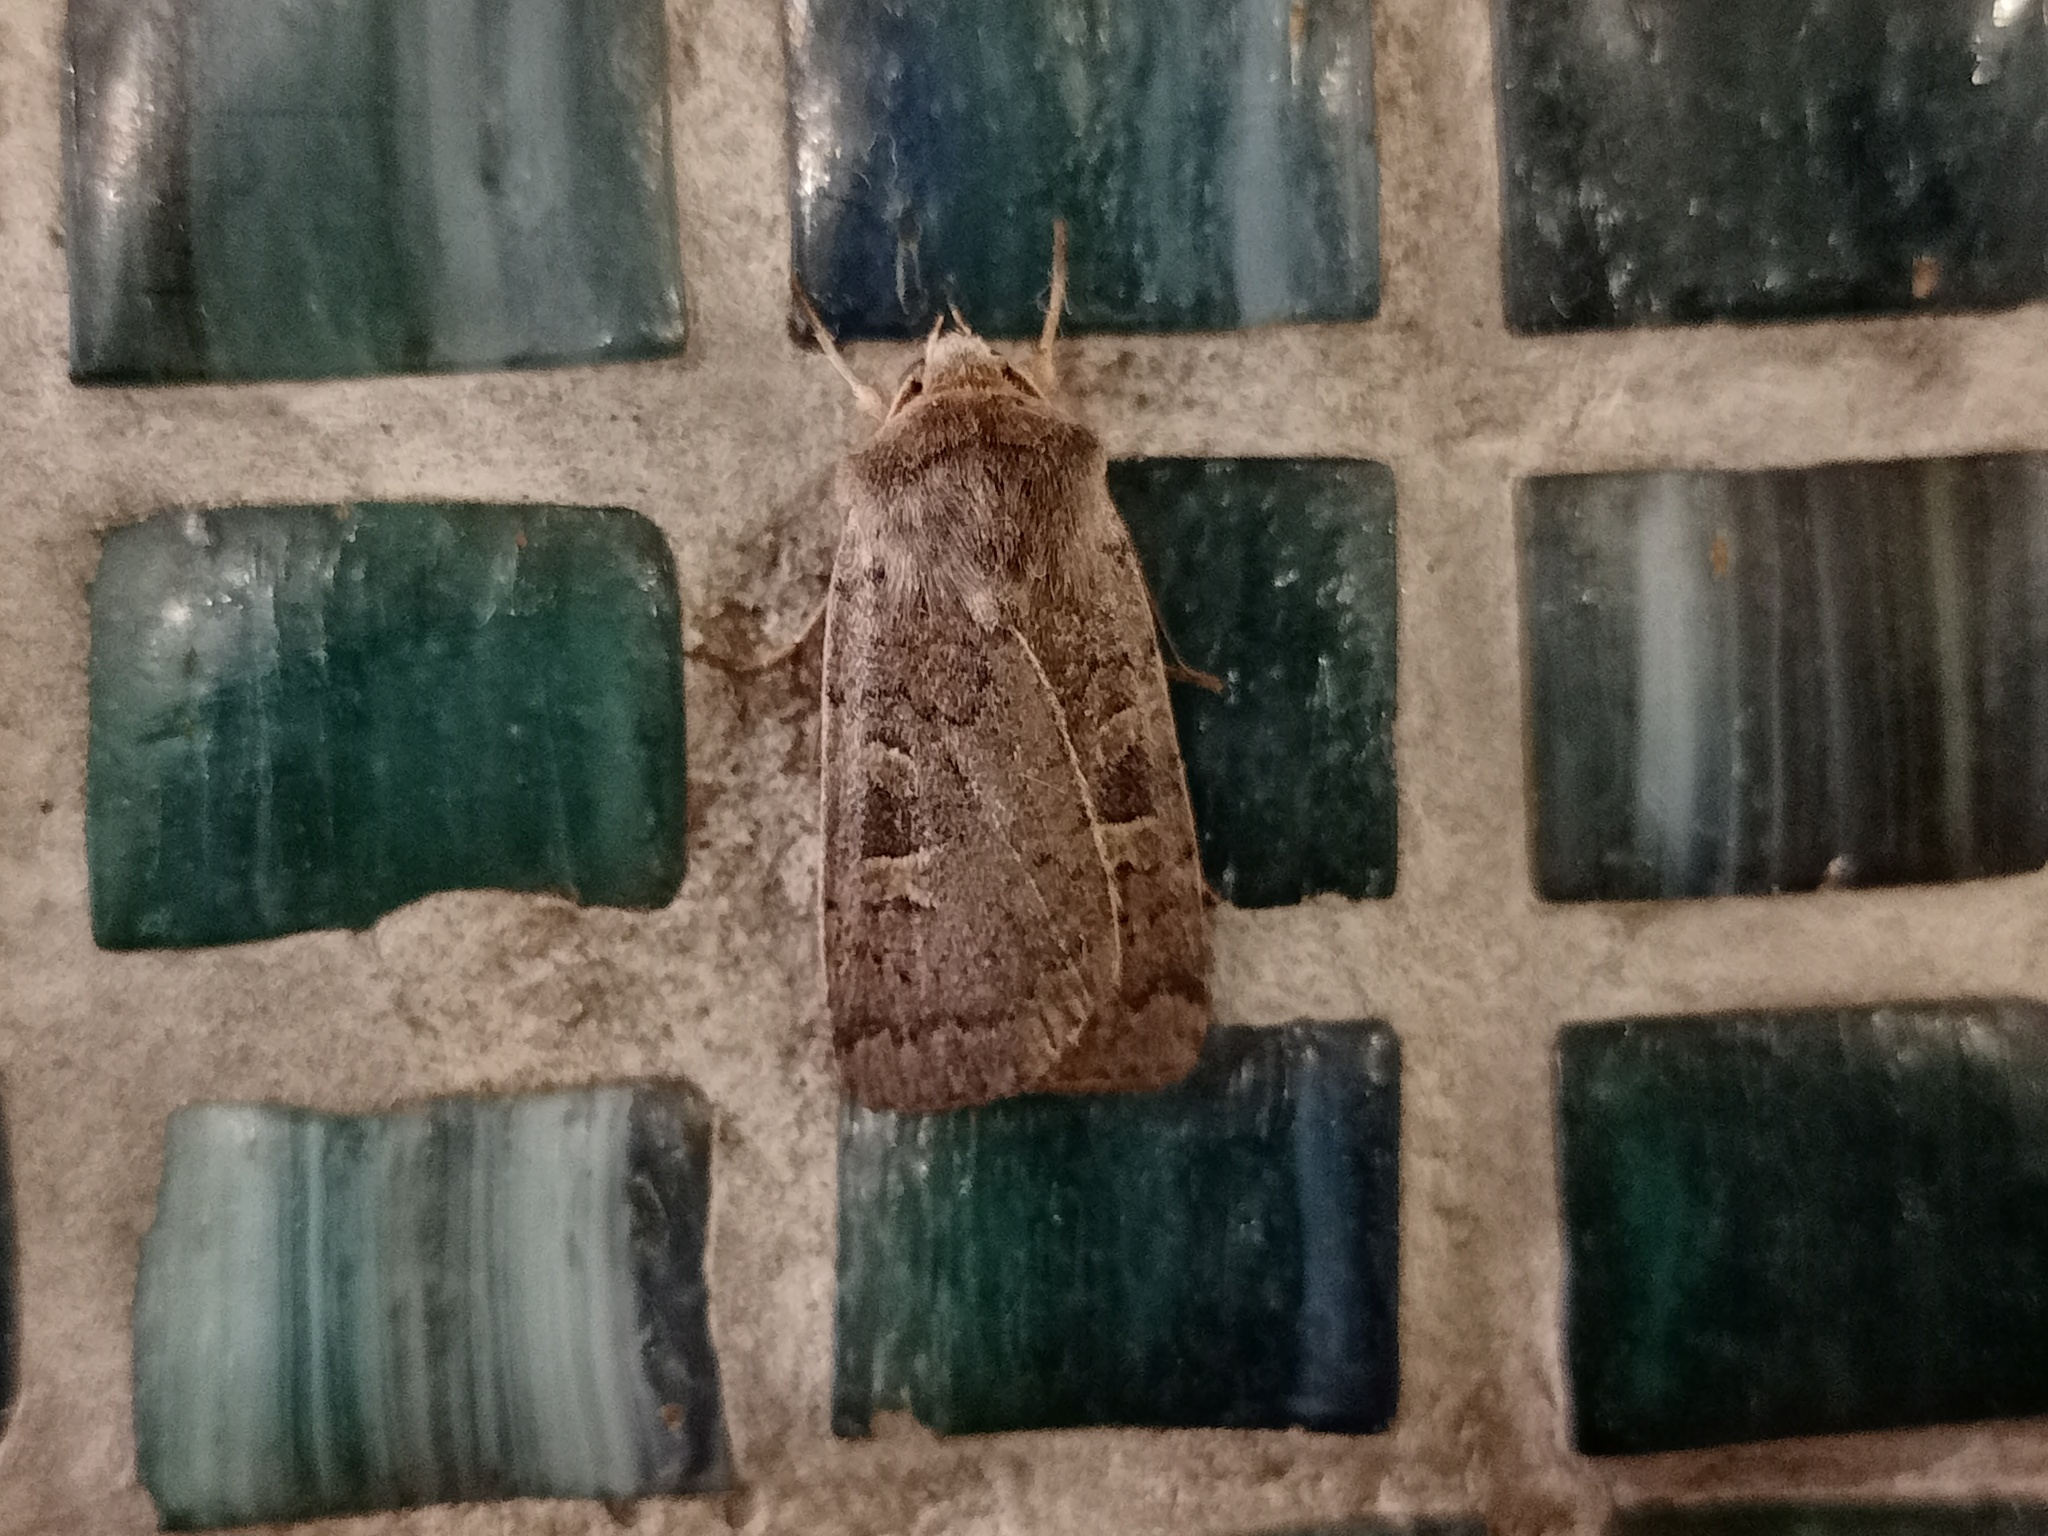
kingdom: Animalia
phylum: Arthropoda
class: Insecta
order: Lepidoptera
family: Noctuidae
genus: Xestia
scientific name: Xestia xanthographa
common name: Square-spot rustic
